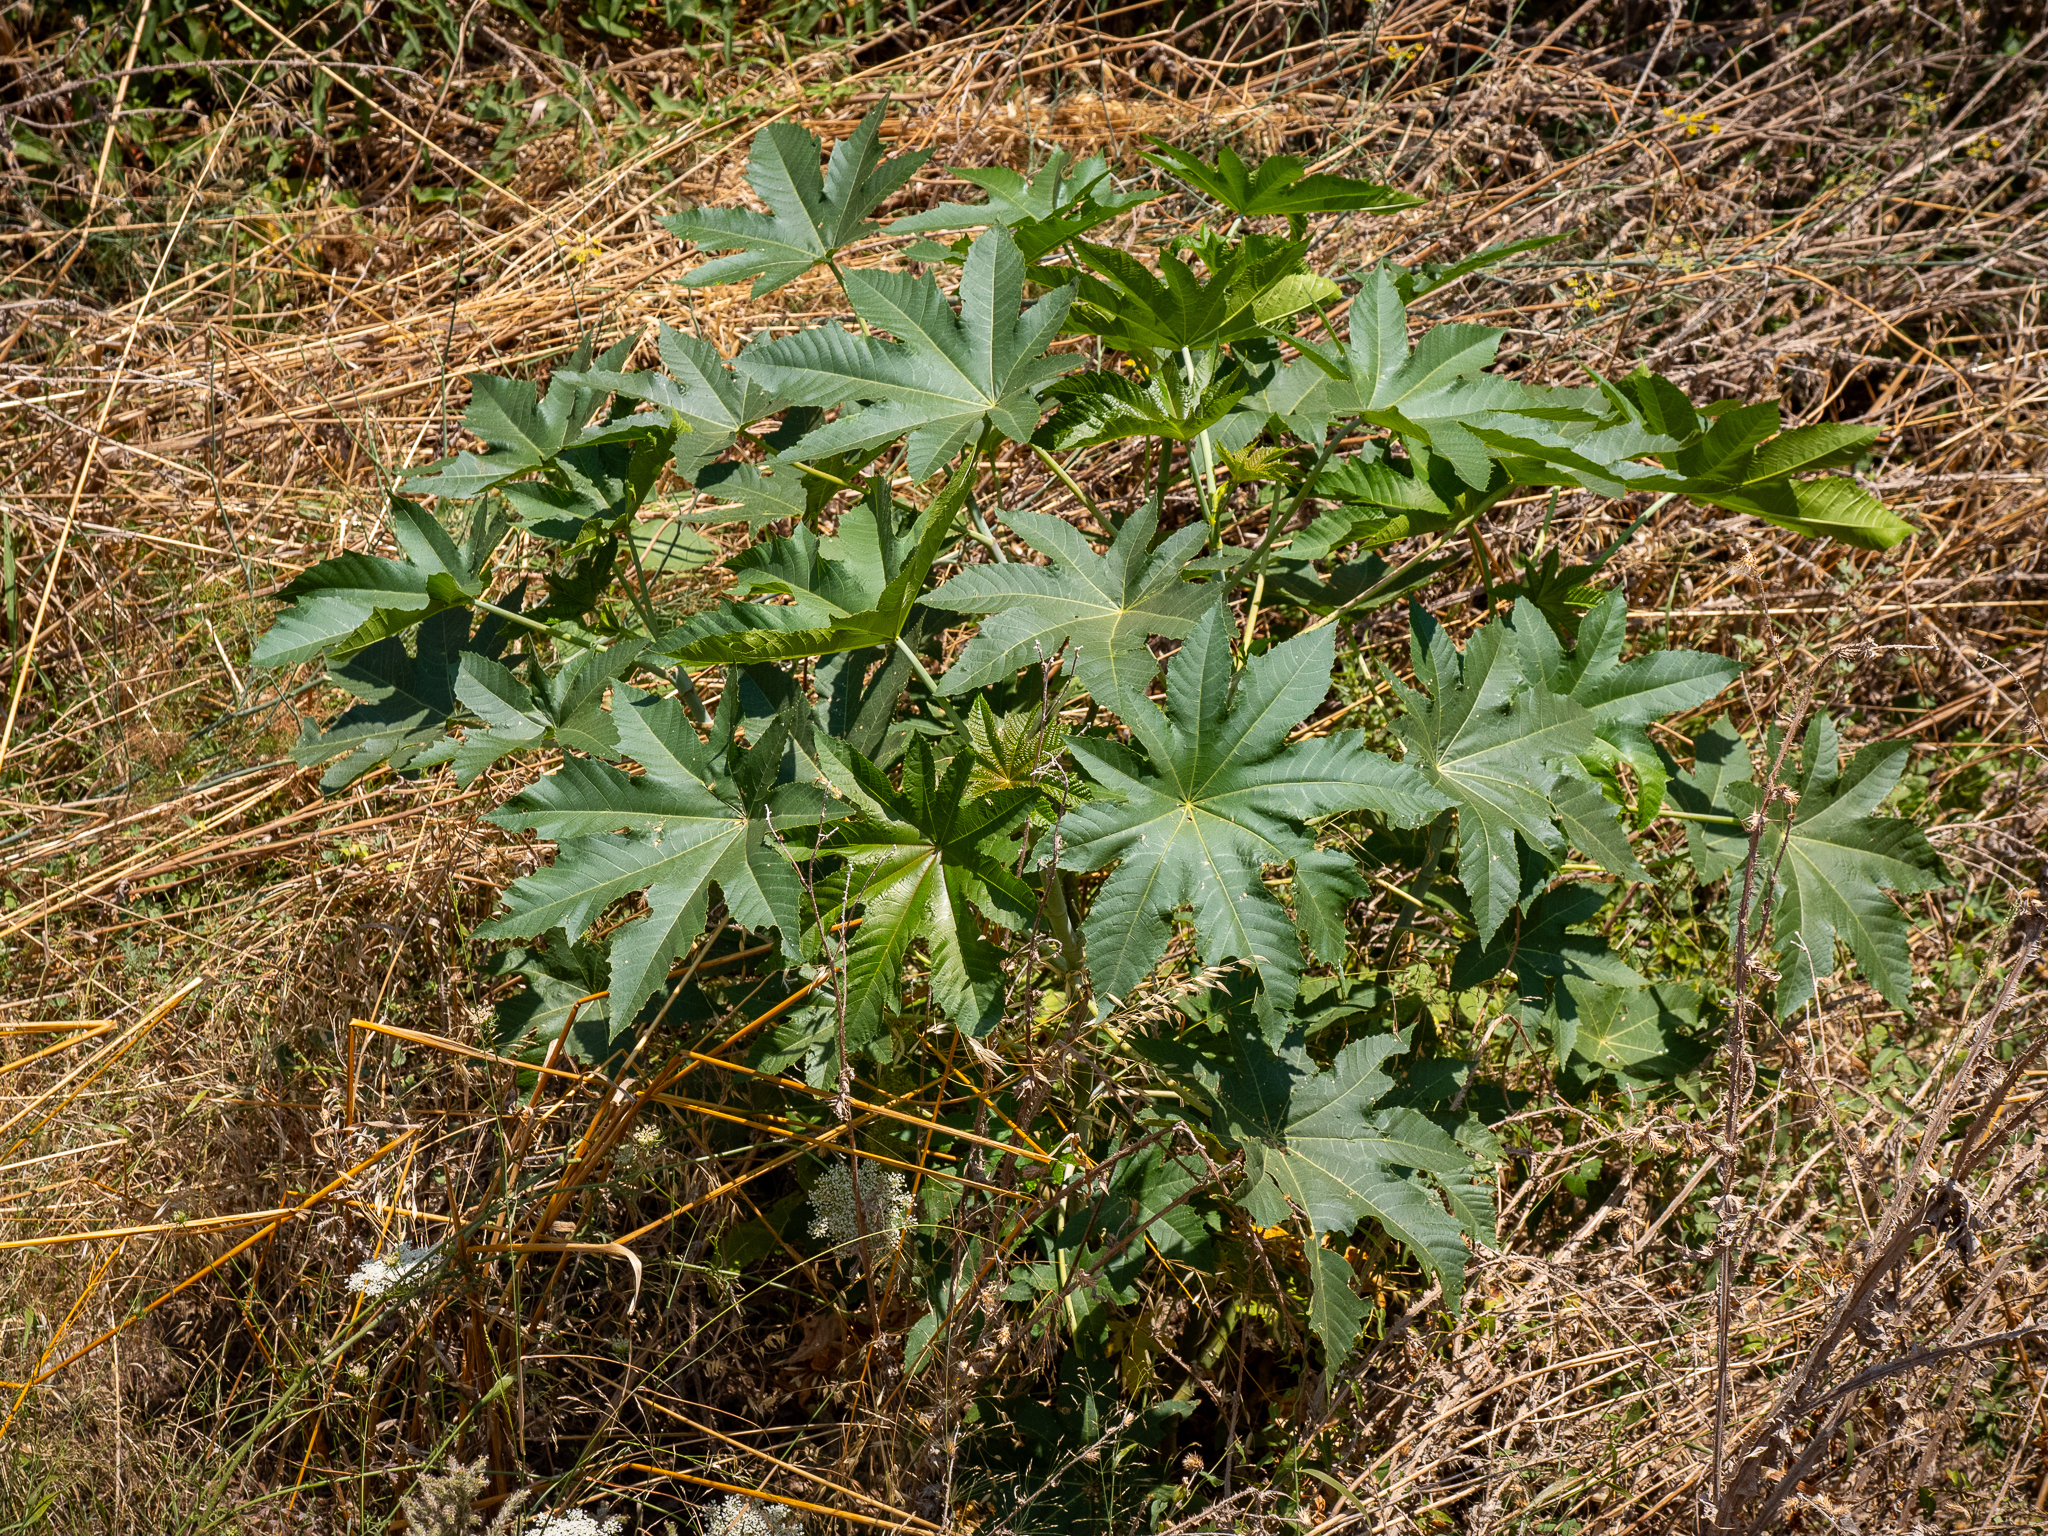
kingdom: Plantae
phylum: Tracheophyta
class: Magnoliopsida
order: Malpighiales
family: Euphorbiaceae
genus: Ricinus
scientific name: Ricinus communis
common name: Castor-oil-plant
